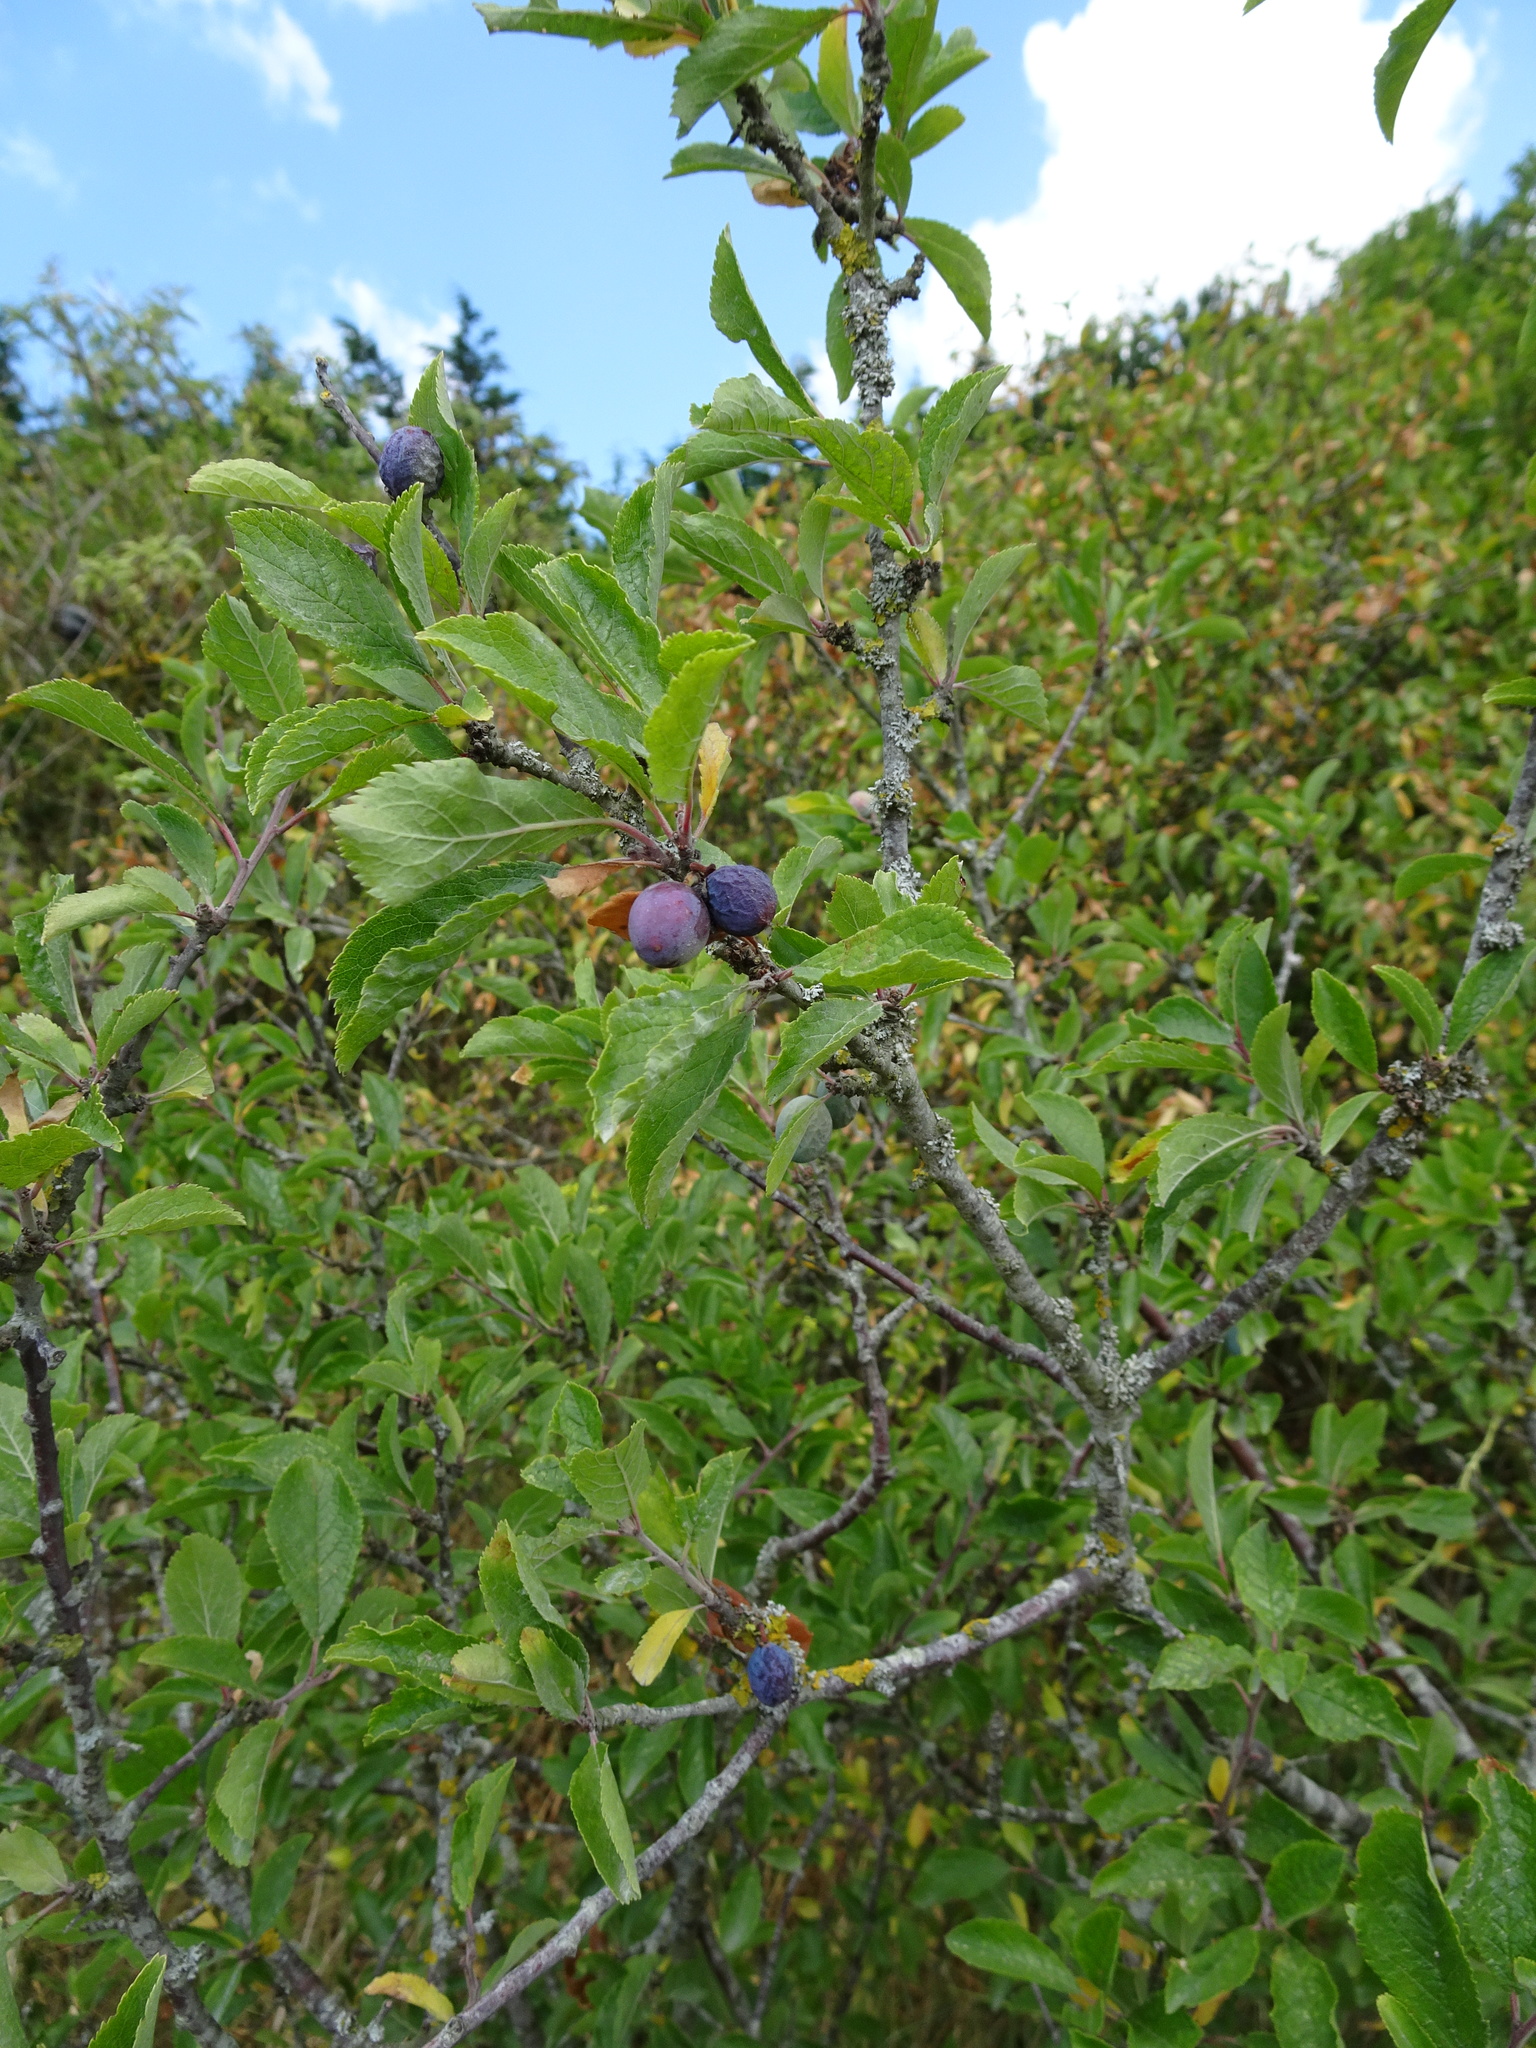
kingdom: Plantae
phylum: Tracheophyta
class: Magnoliopsida
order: Rosales
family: Rosaceae
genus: Prunus
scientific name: Prunus spinosa
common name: Blackthorn
